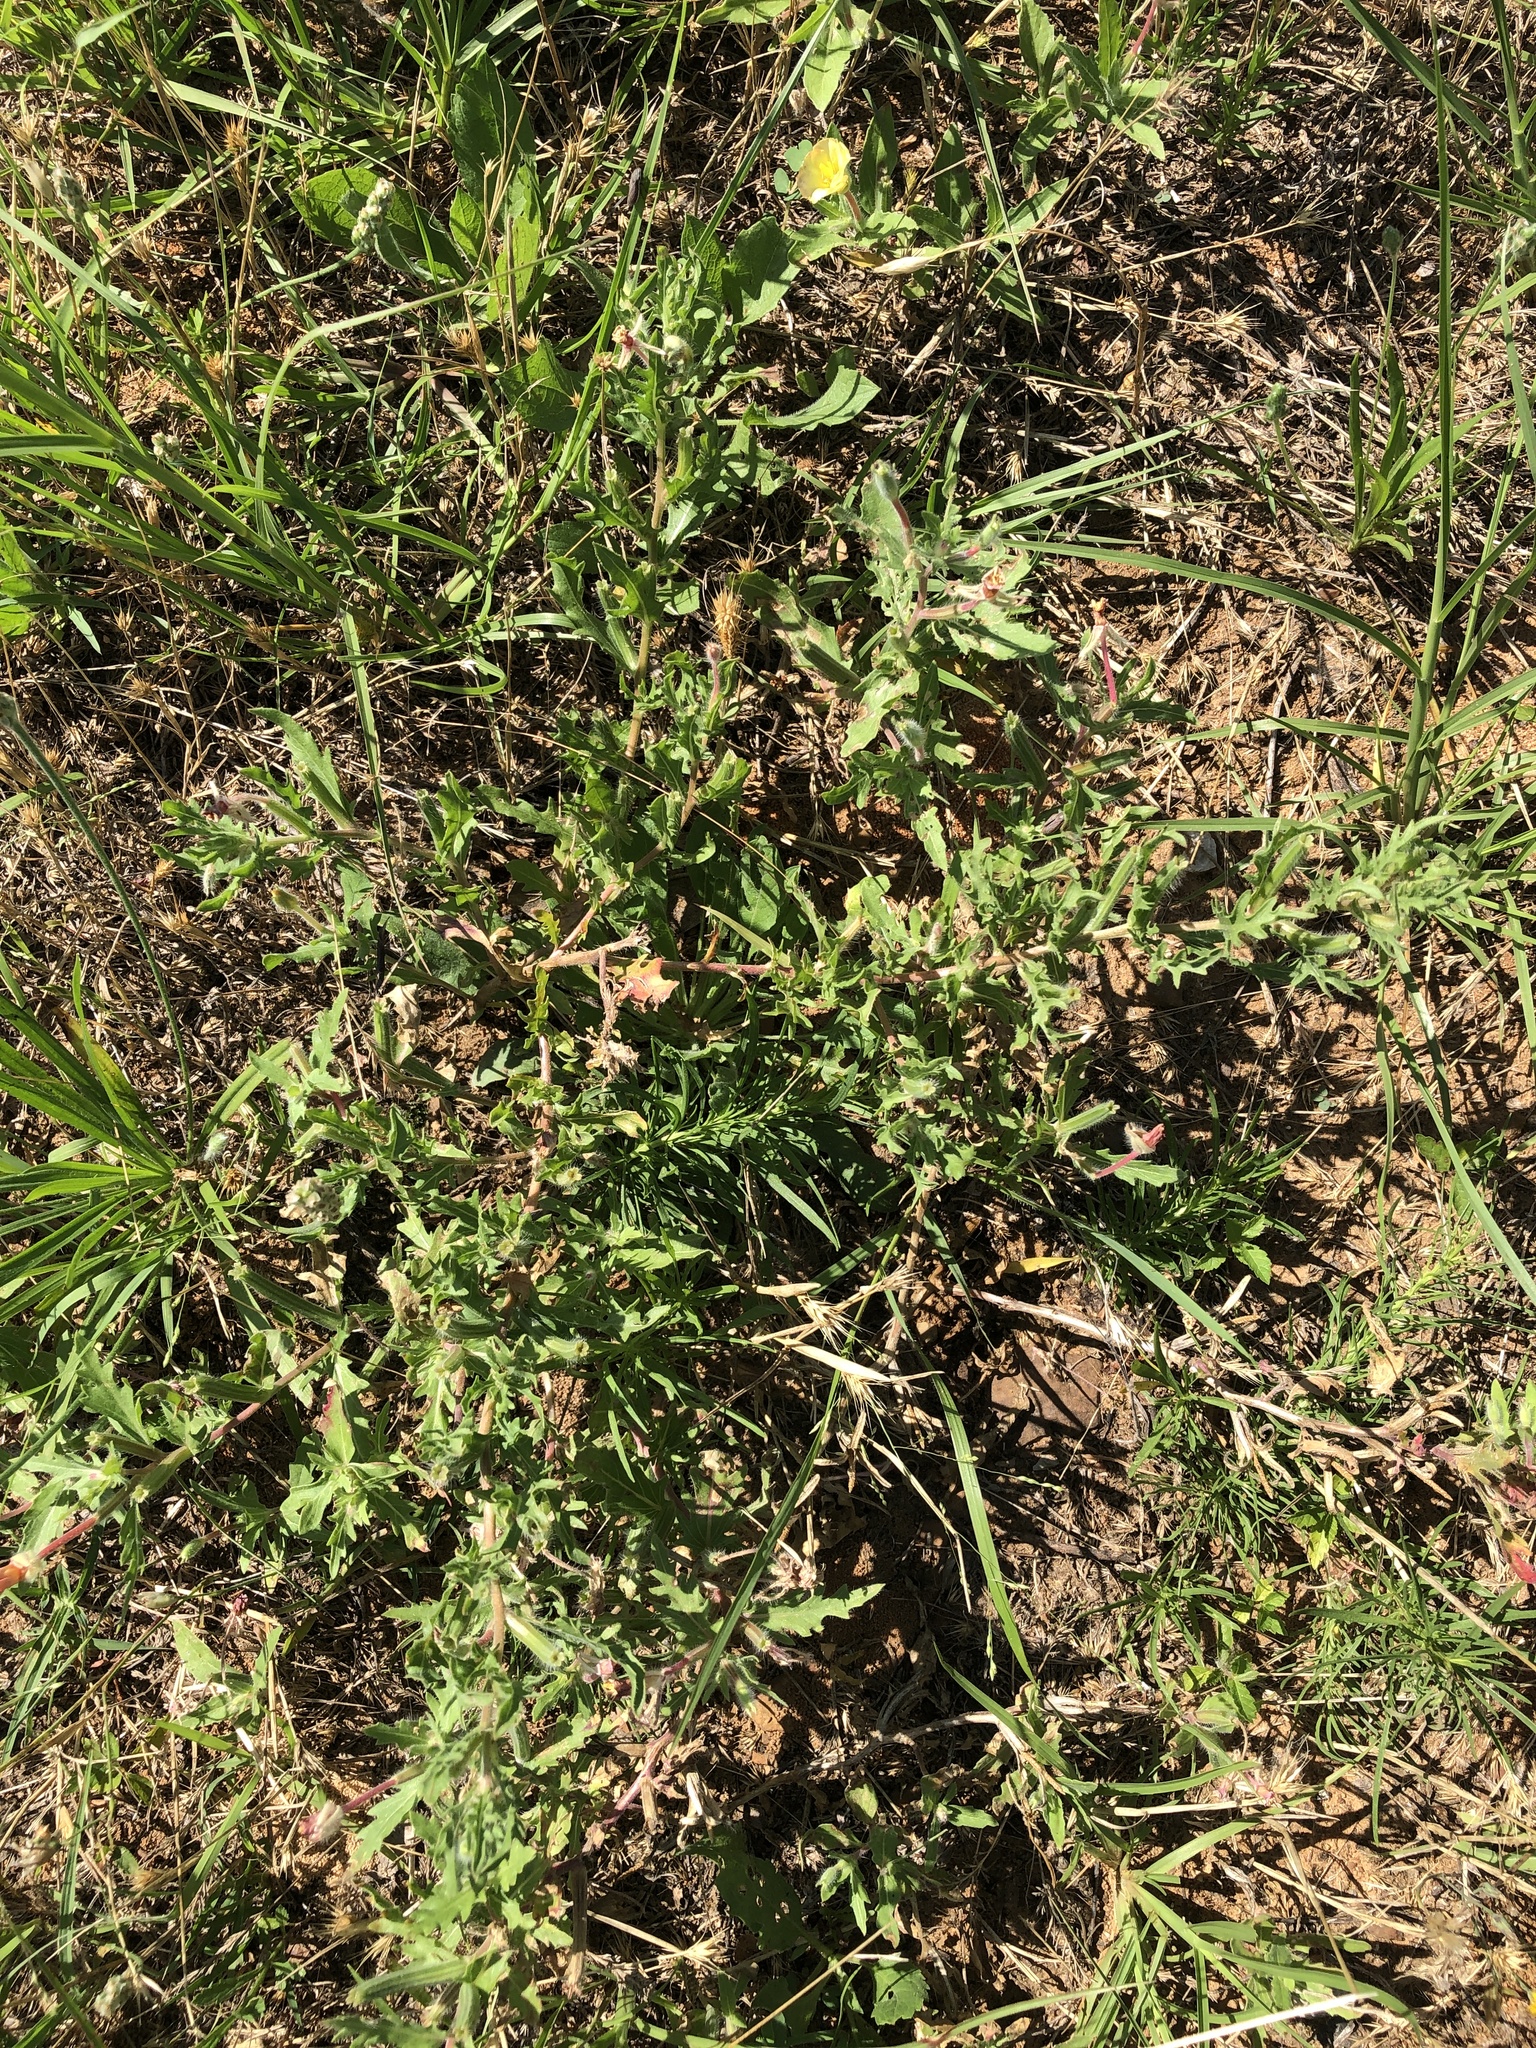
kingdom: Plantae
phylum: Tracheophyta
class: Magnoliopsida
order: Myrtales
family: Onagraceae
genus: Oenothera
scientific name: Oenothera laciniata
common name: Cut-leaved evening-primrose
